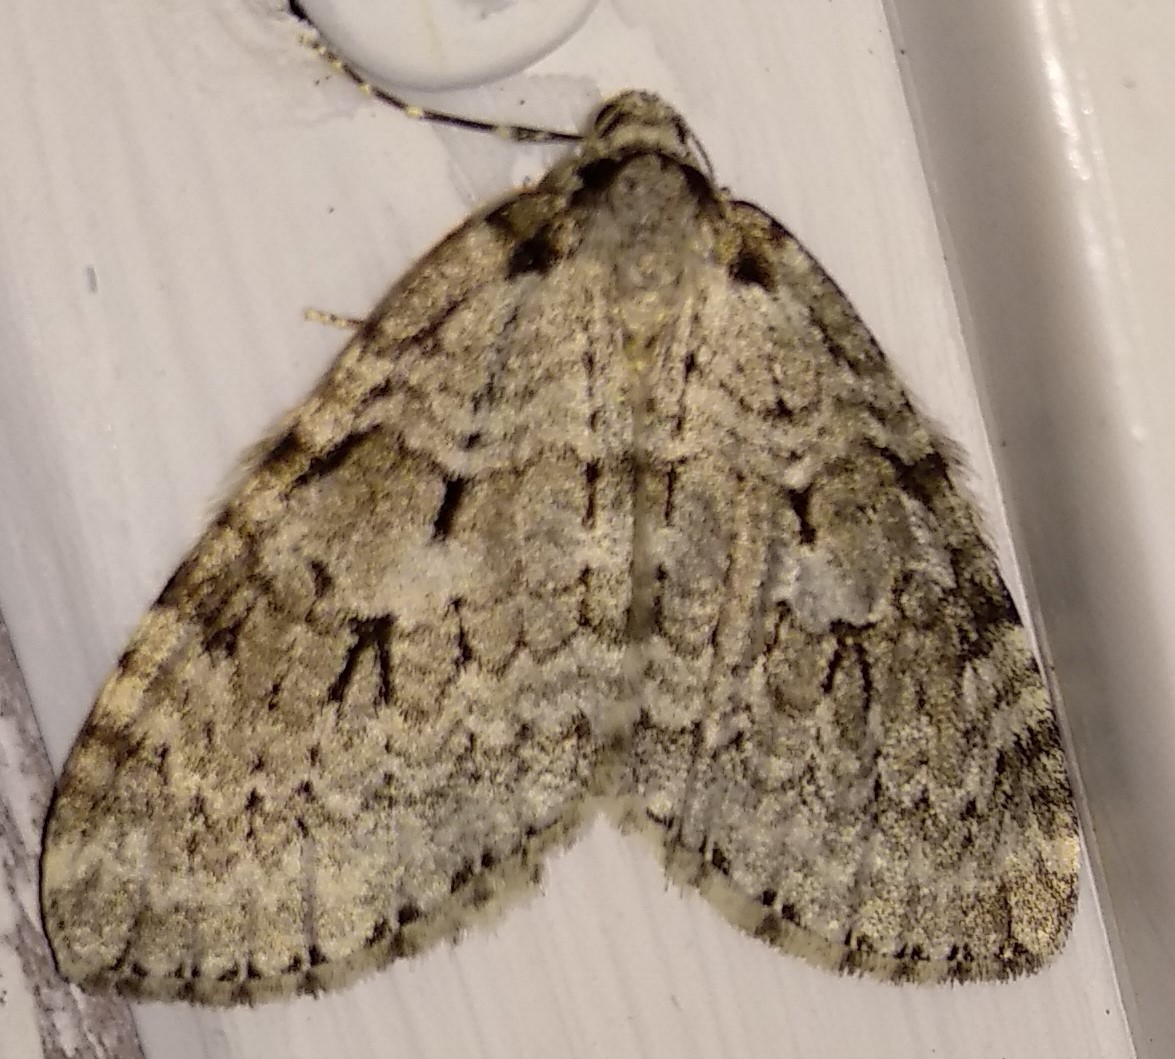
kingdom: Animalia
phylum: Arthropoda
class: Insecta
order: Lepidoptera
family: Geometridae
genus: Epirrita
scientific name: Epirrita autumnata
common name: Autumnal moth
